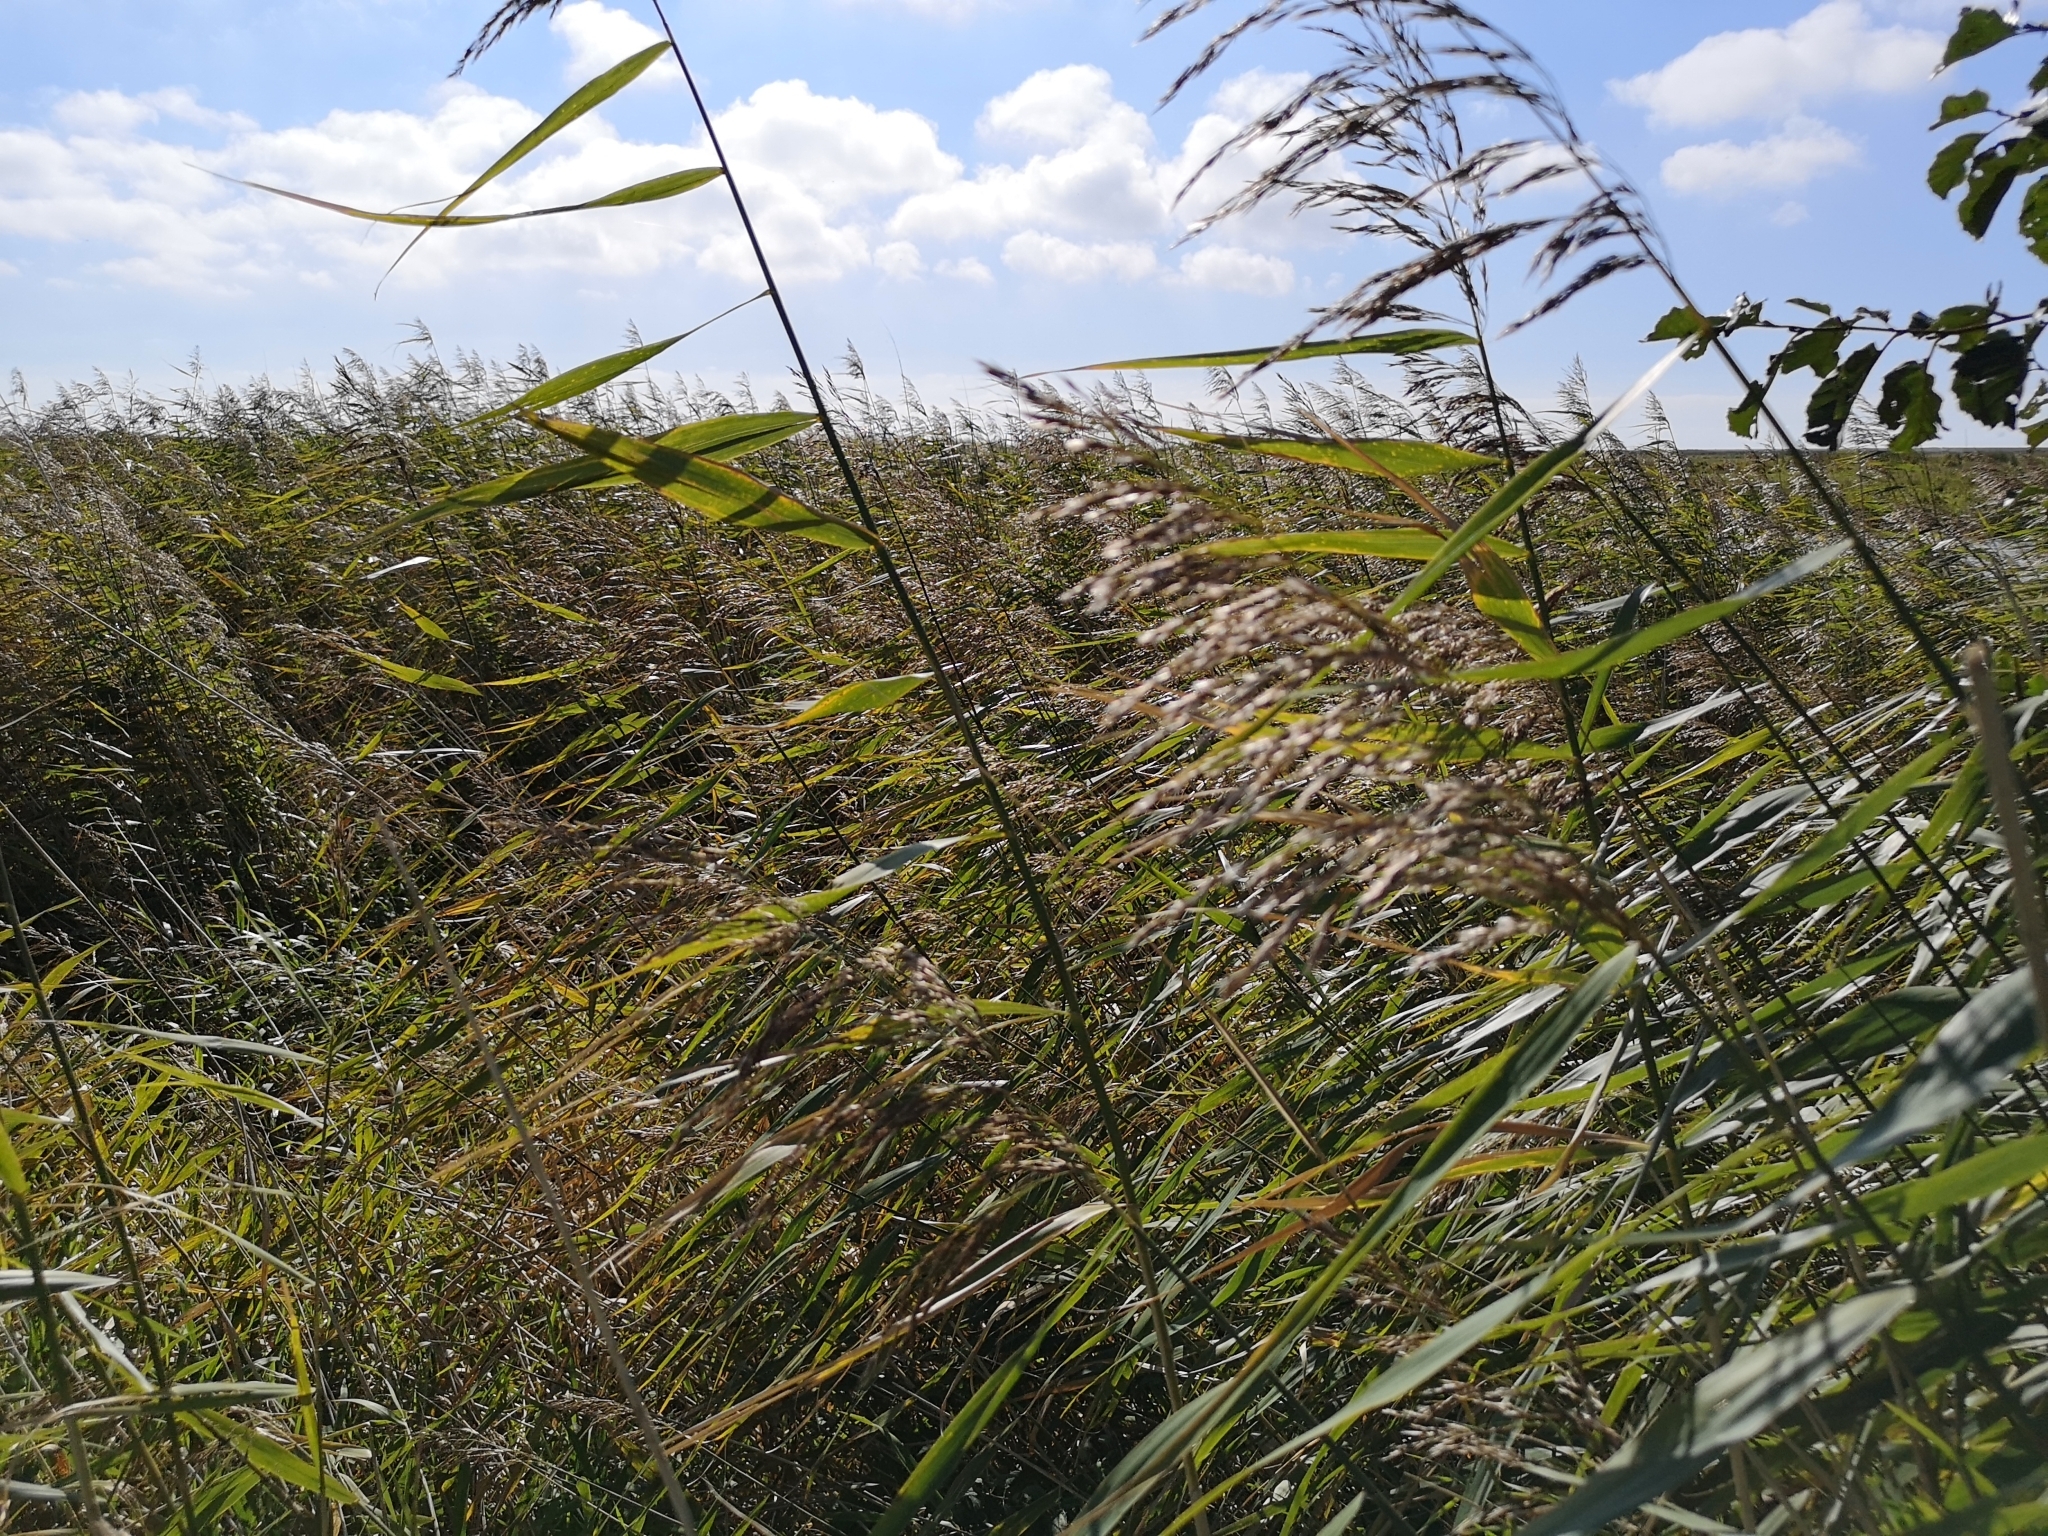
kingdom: Plantae
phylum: Tracheophyta
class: Liliopsida
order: Poales
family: Poaceae
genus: Phragmites
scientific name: Phragmites australis
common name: Common reed
